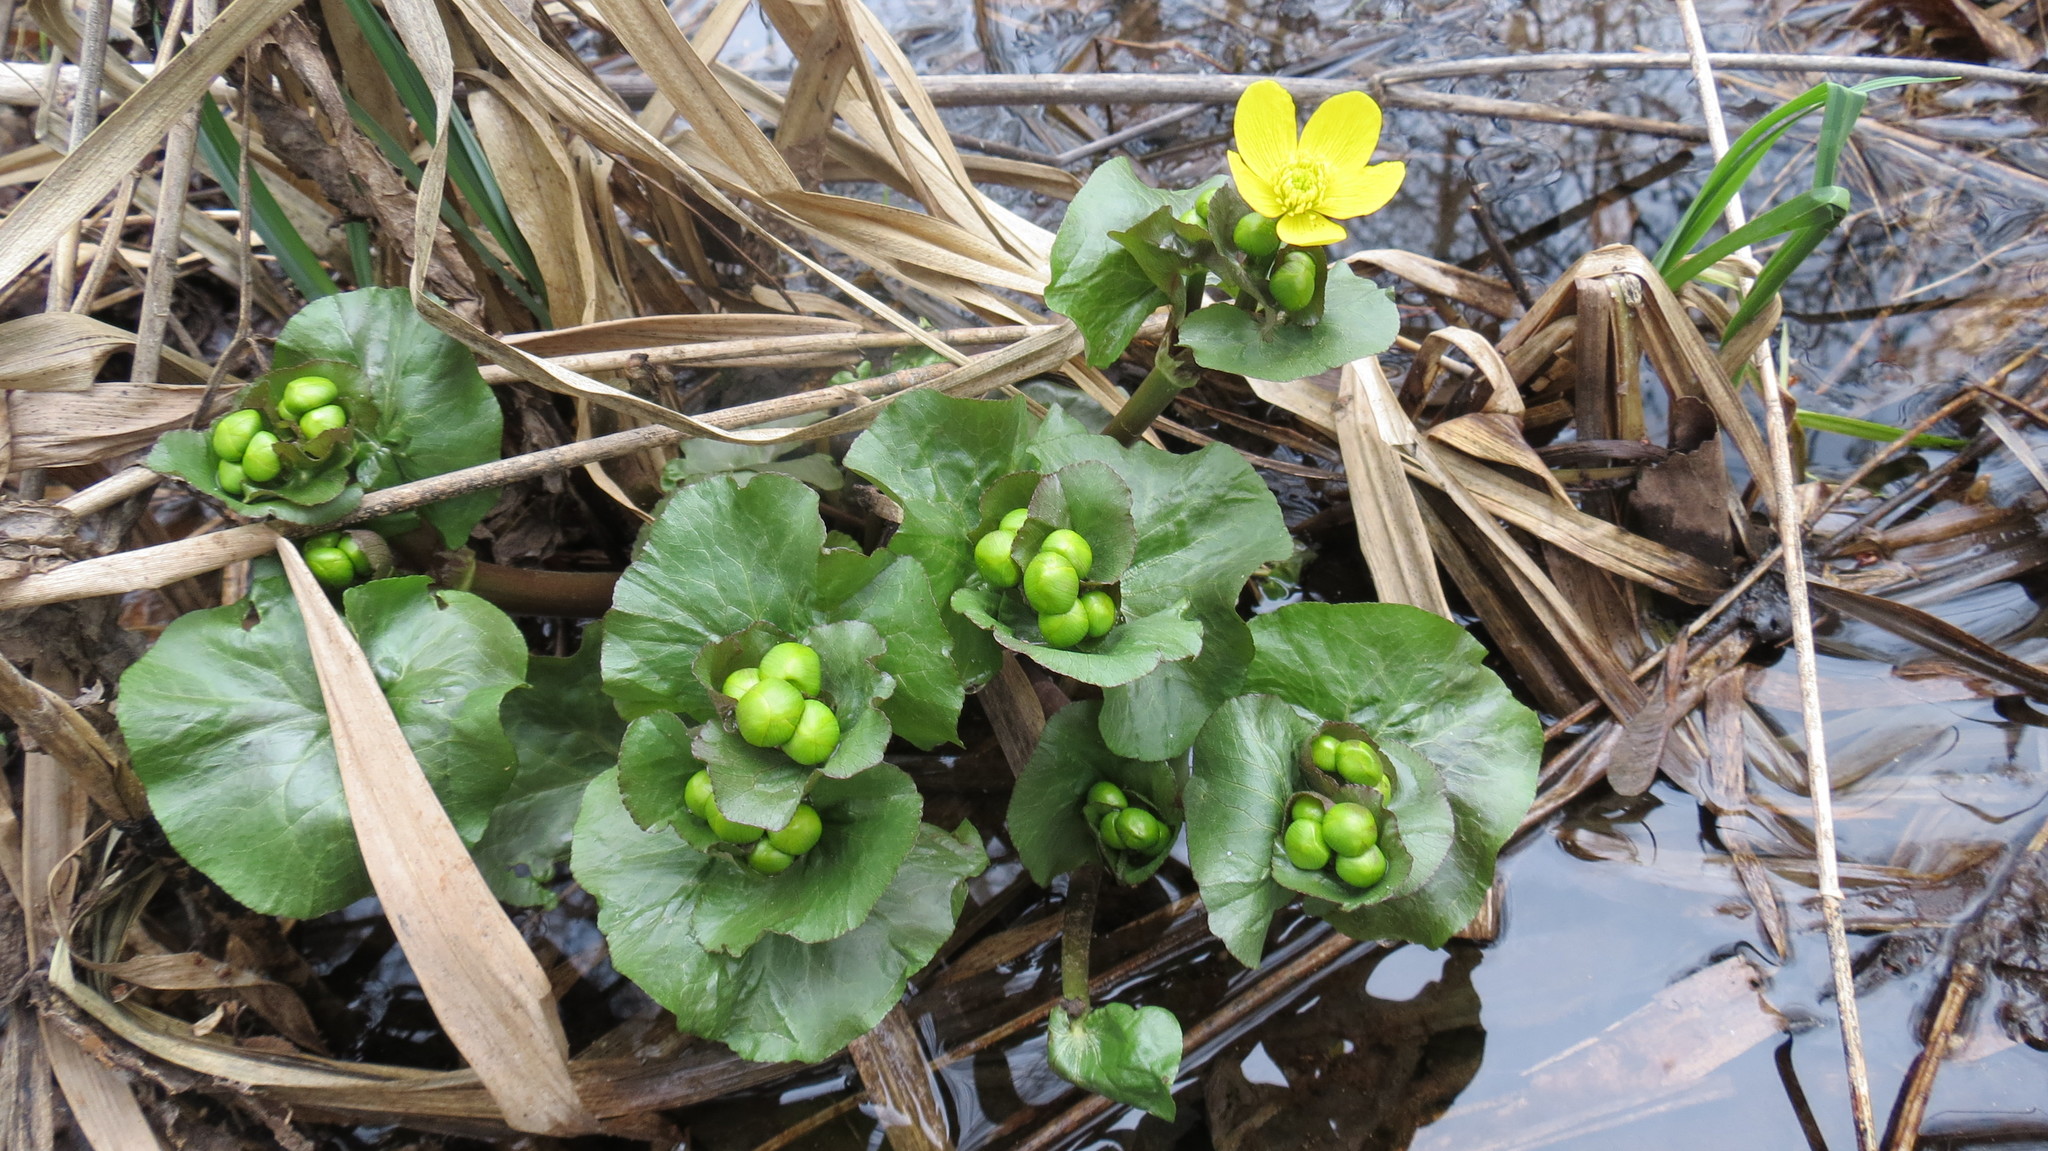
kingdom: Plantae
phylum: Tracheophyta
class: Magnoliopsida
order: Ranunculales
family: Ranunculaceae
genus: Caltha
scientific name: Caltha palustris
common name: Marsh marigold
